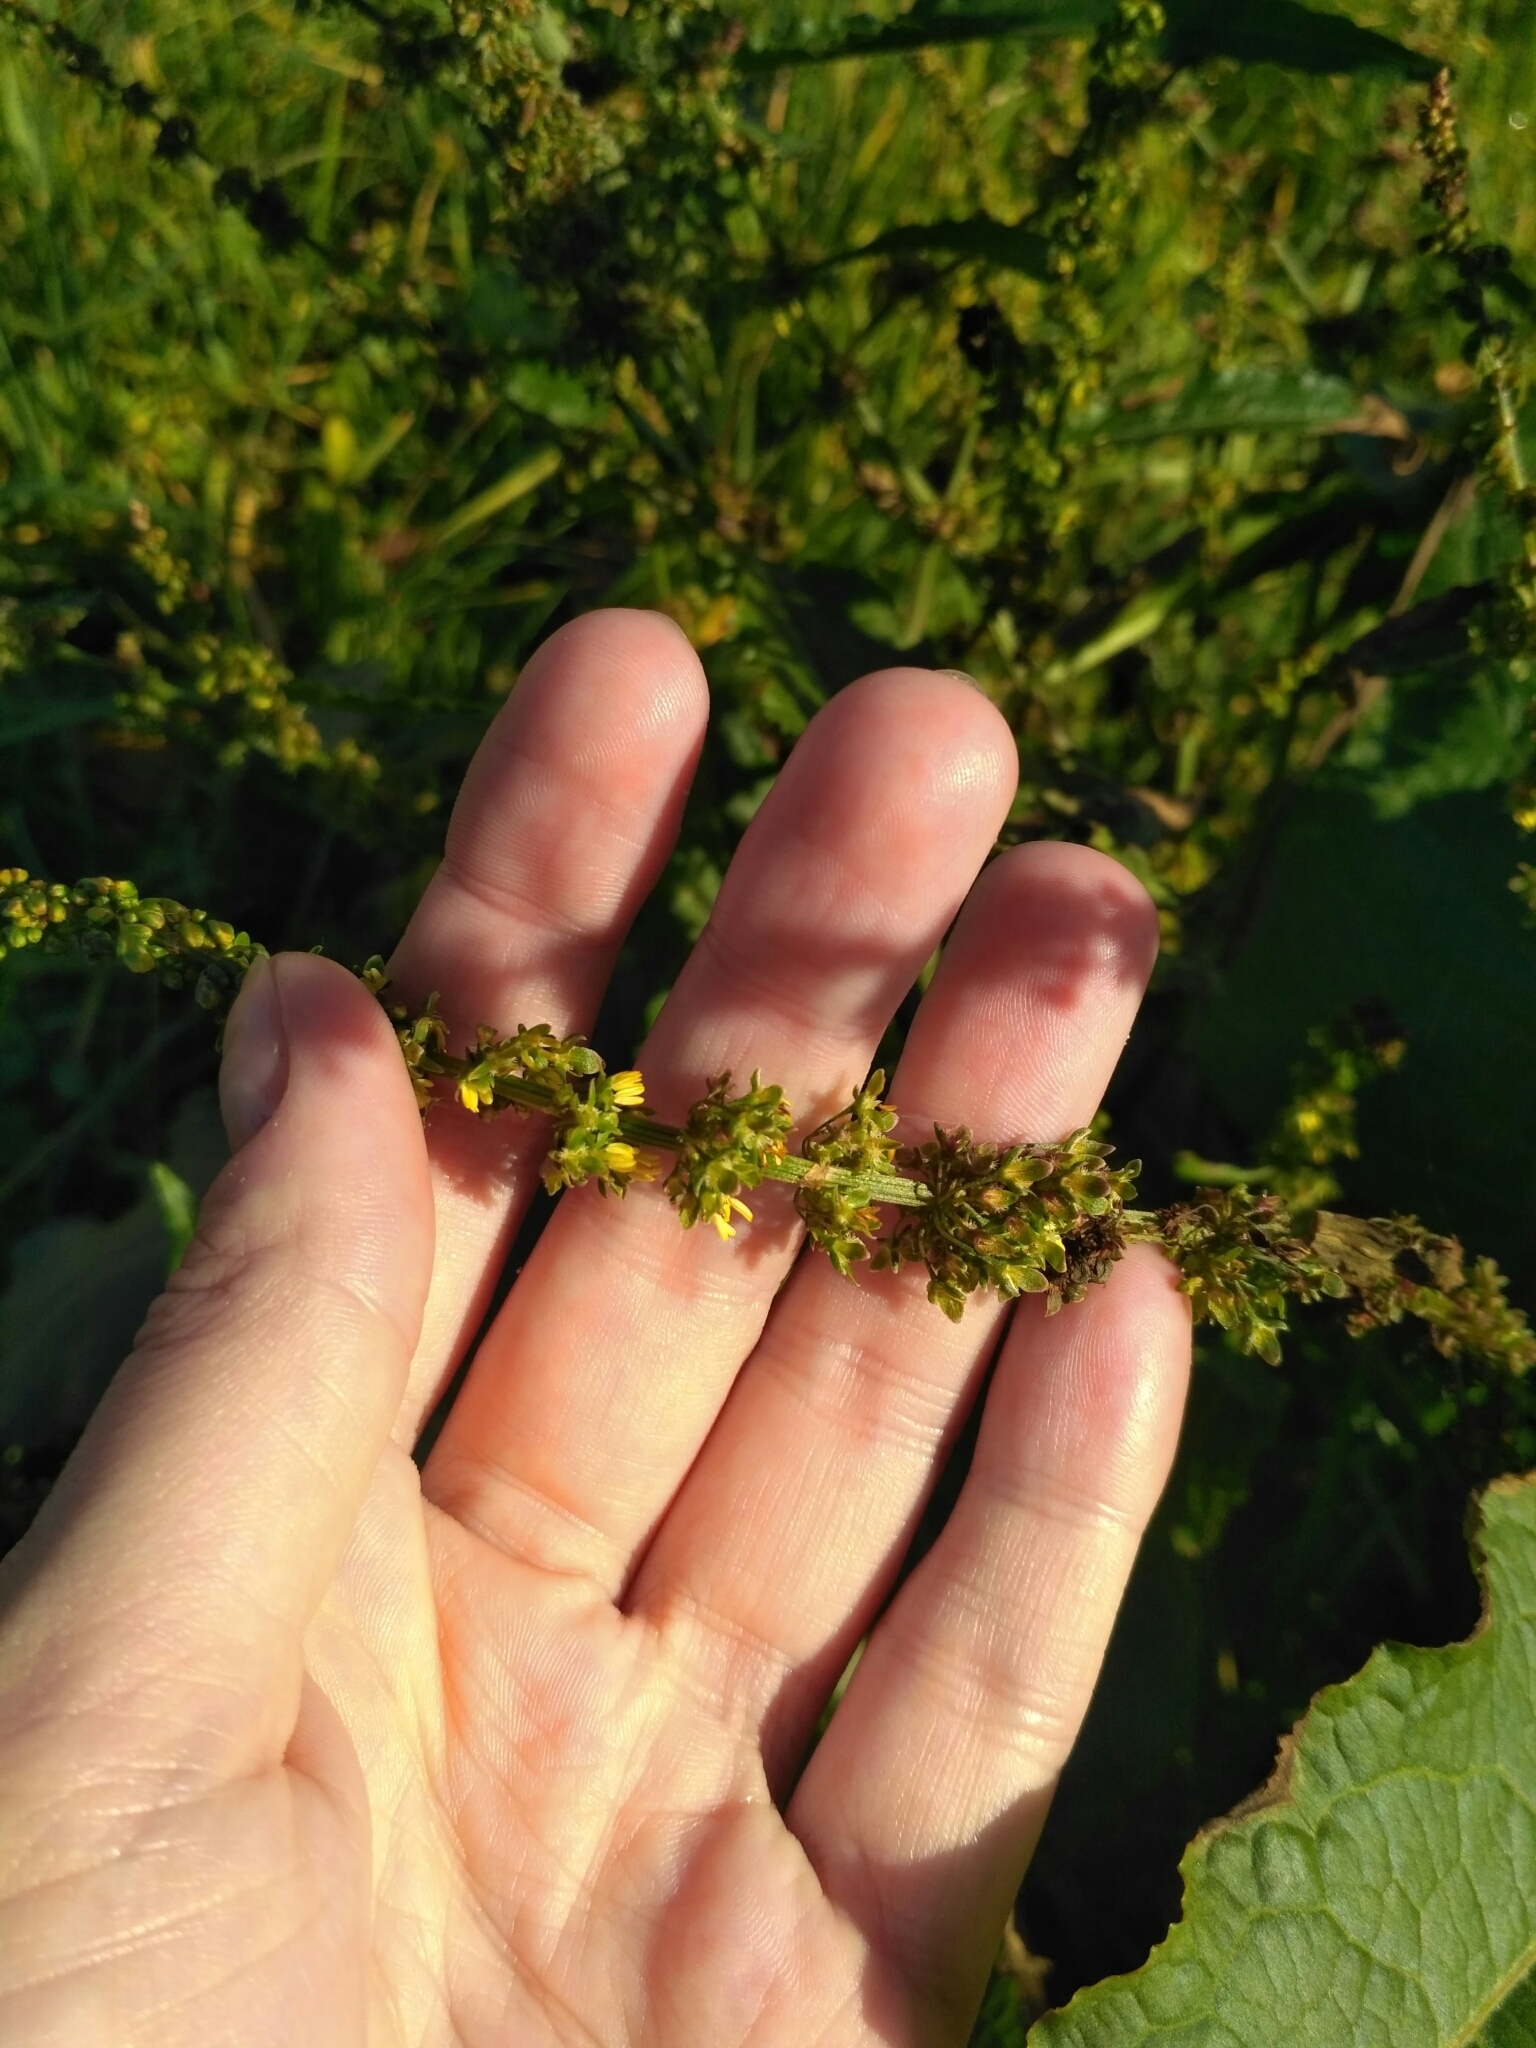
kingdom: Plantae
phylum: Tracheophyta
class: Magnoliopsida
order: Caryophyllales
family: Polygonaceae
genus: Rumex
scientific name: Rumex obtusifolius
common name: Bitter dock
